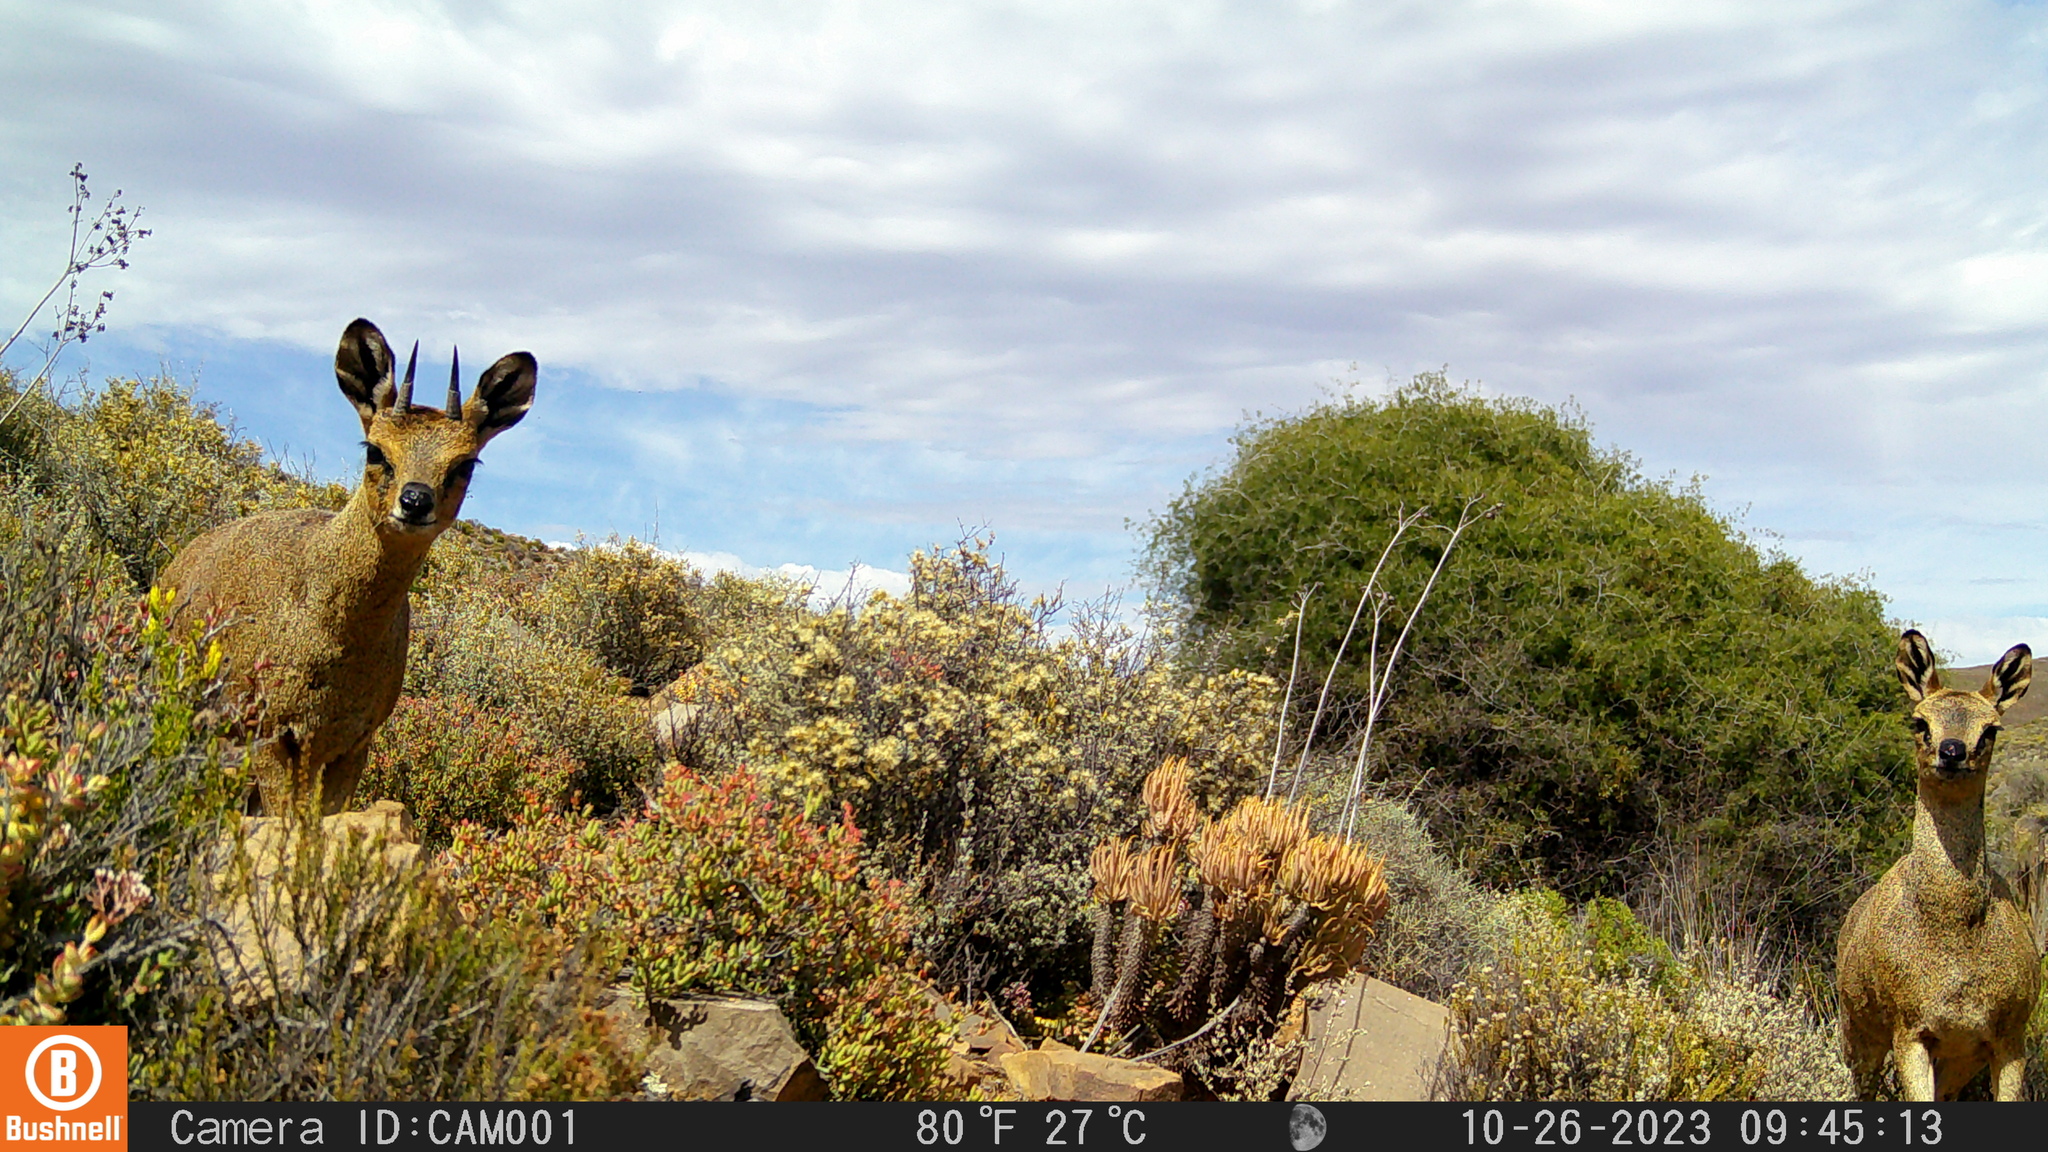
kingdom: Animalia
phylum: Chordata
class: Mammalia
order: Artiodactyla
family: Bovidae
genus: Oreotragus
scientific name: Oreotragus oreotragus
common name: Klipspringer
